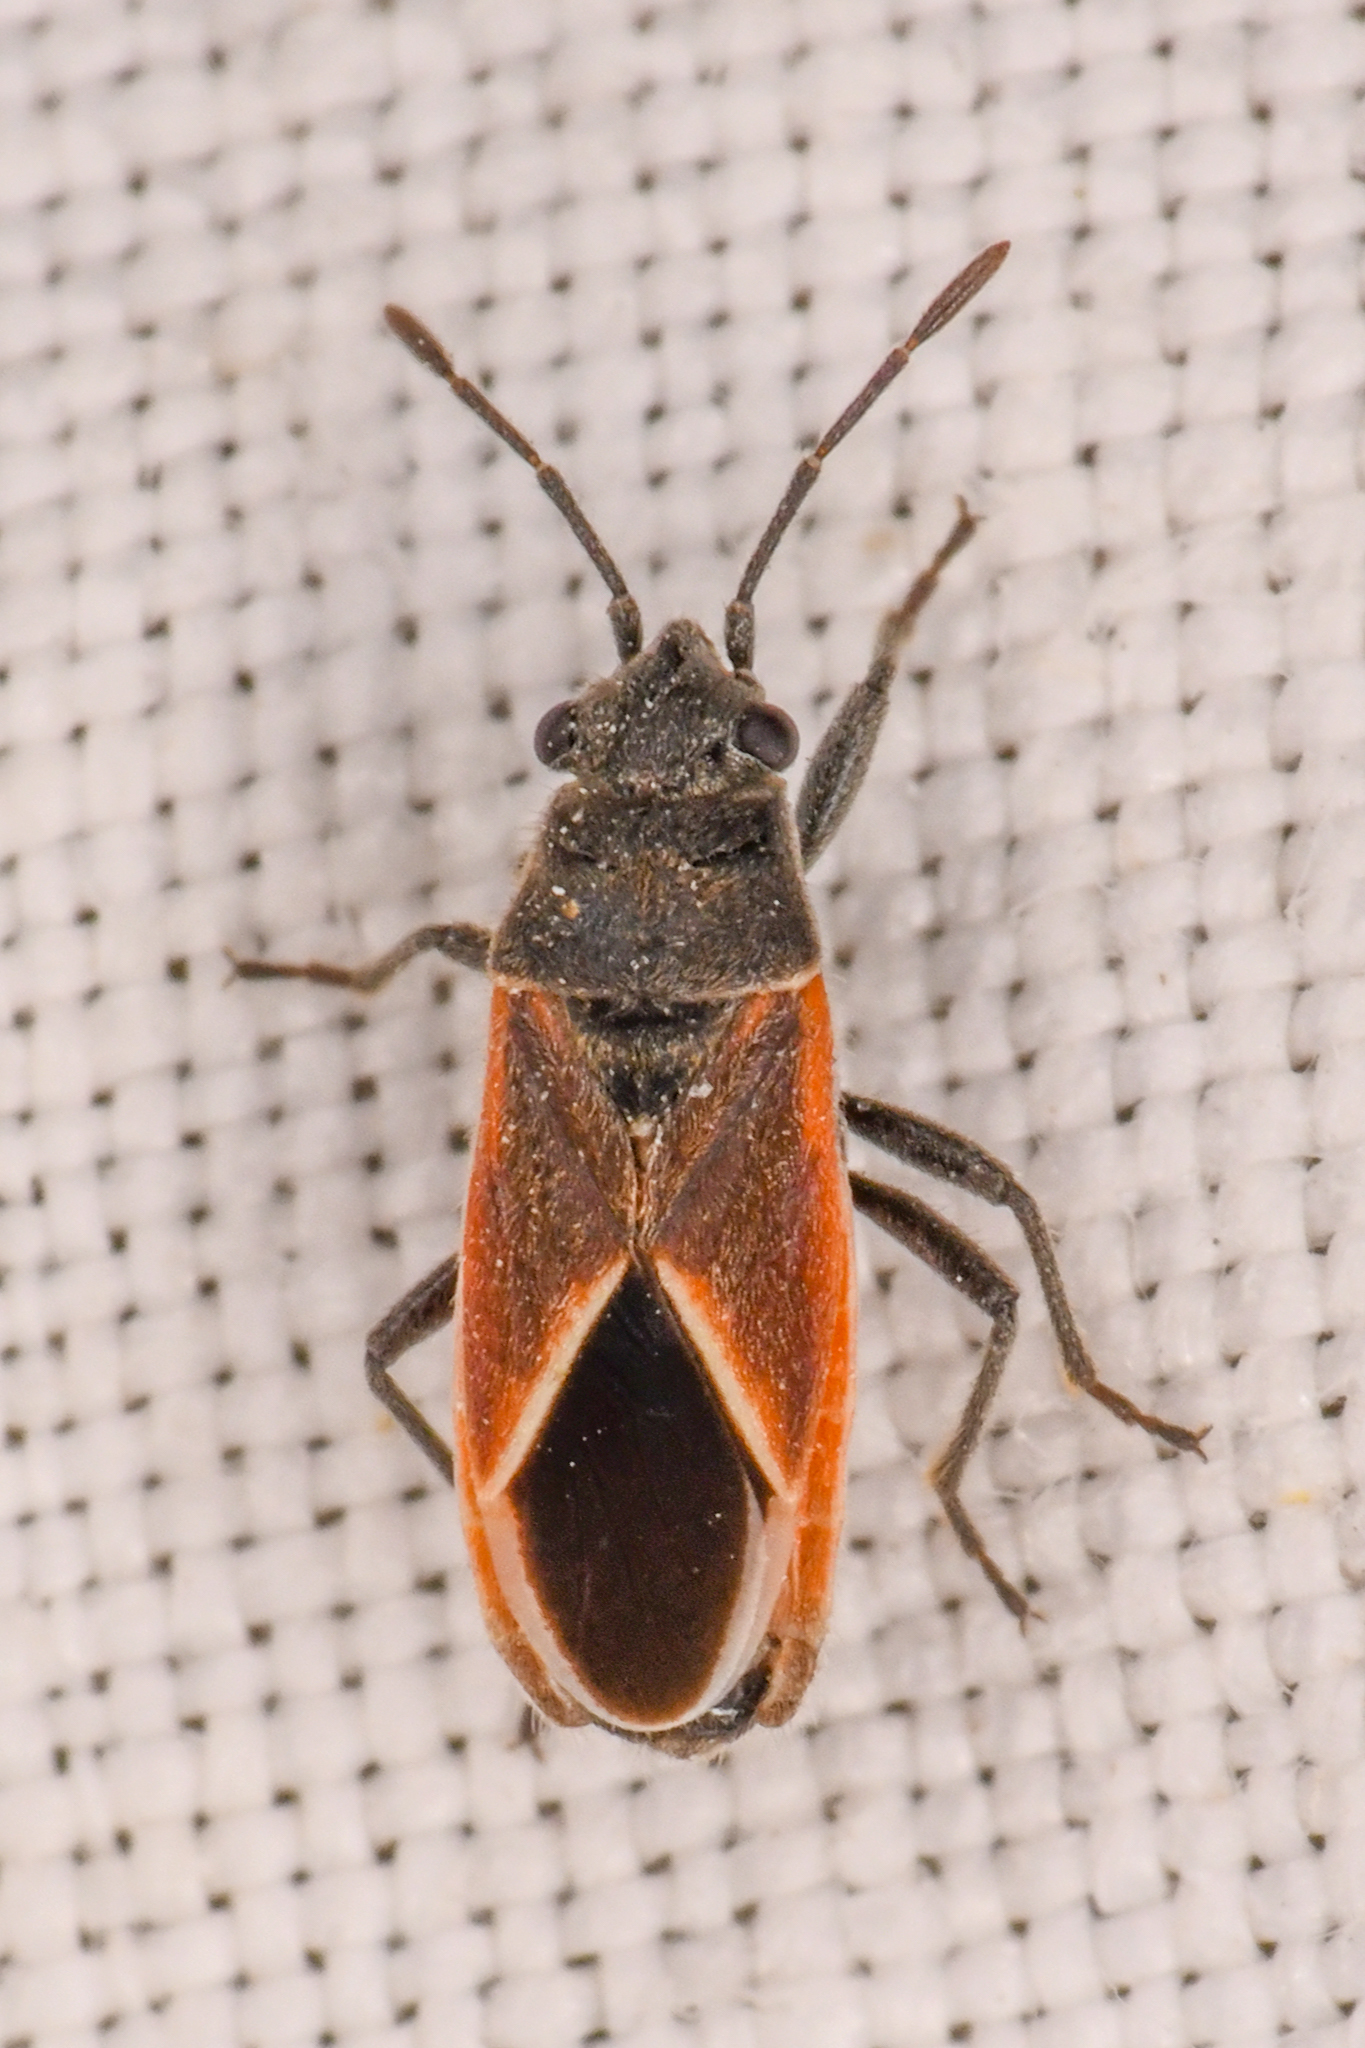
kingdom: Animalia
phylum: Arthropoda
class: Insecta
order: Hemiptera
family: Lygaeidae
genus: Melanopleurus
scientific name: Melanopleurus pyrrhopterus
